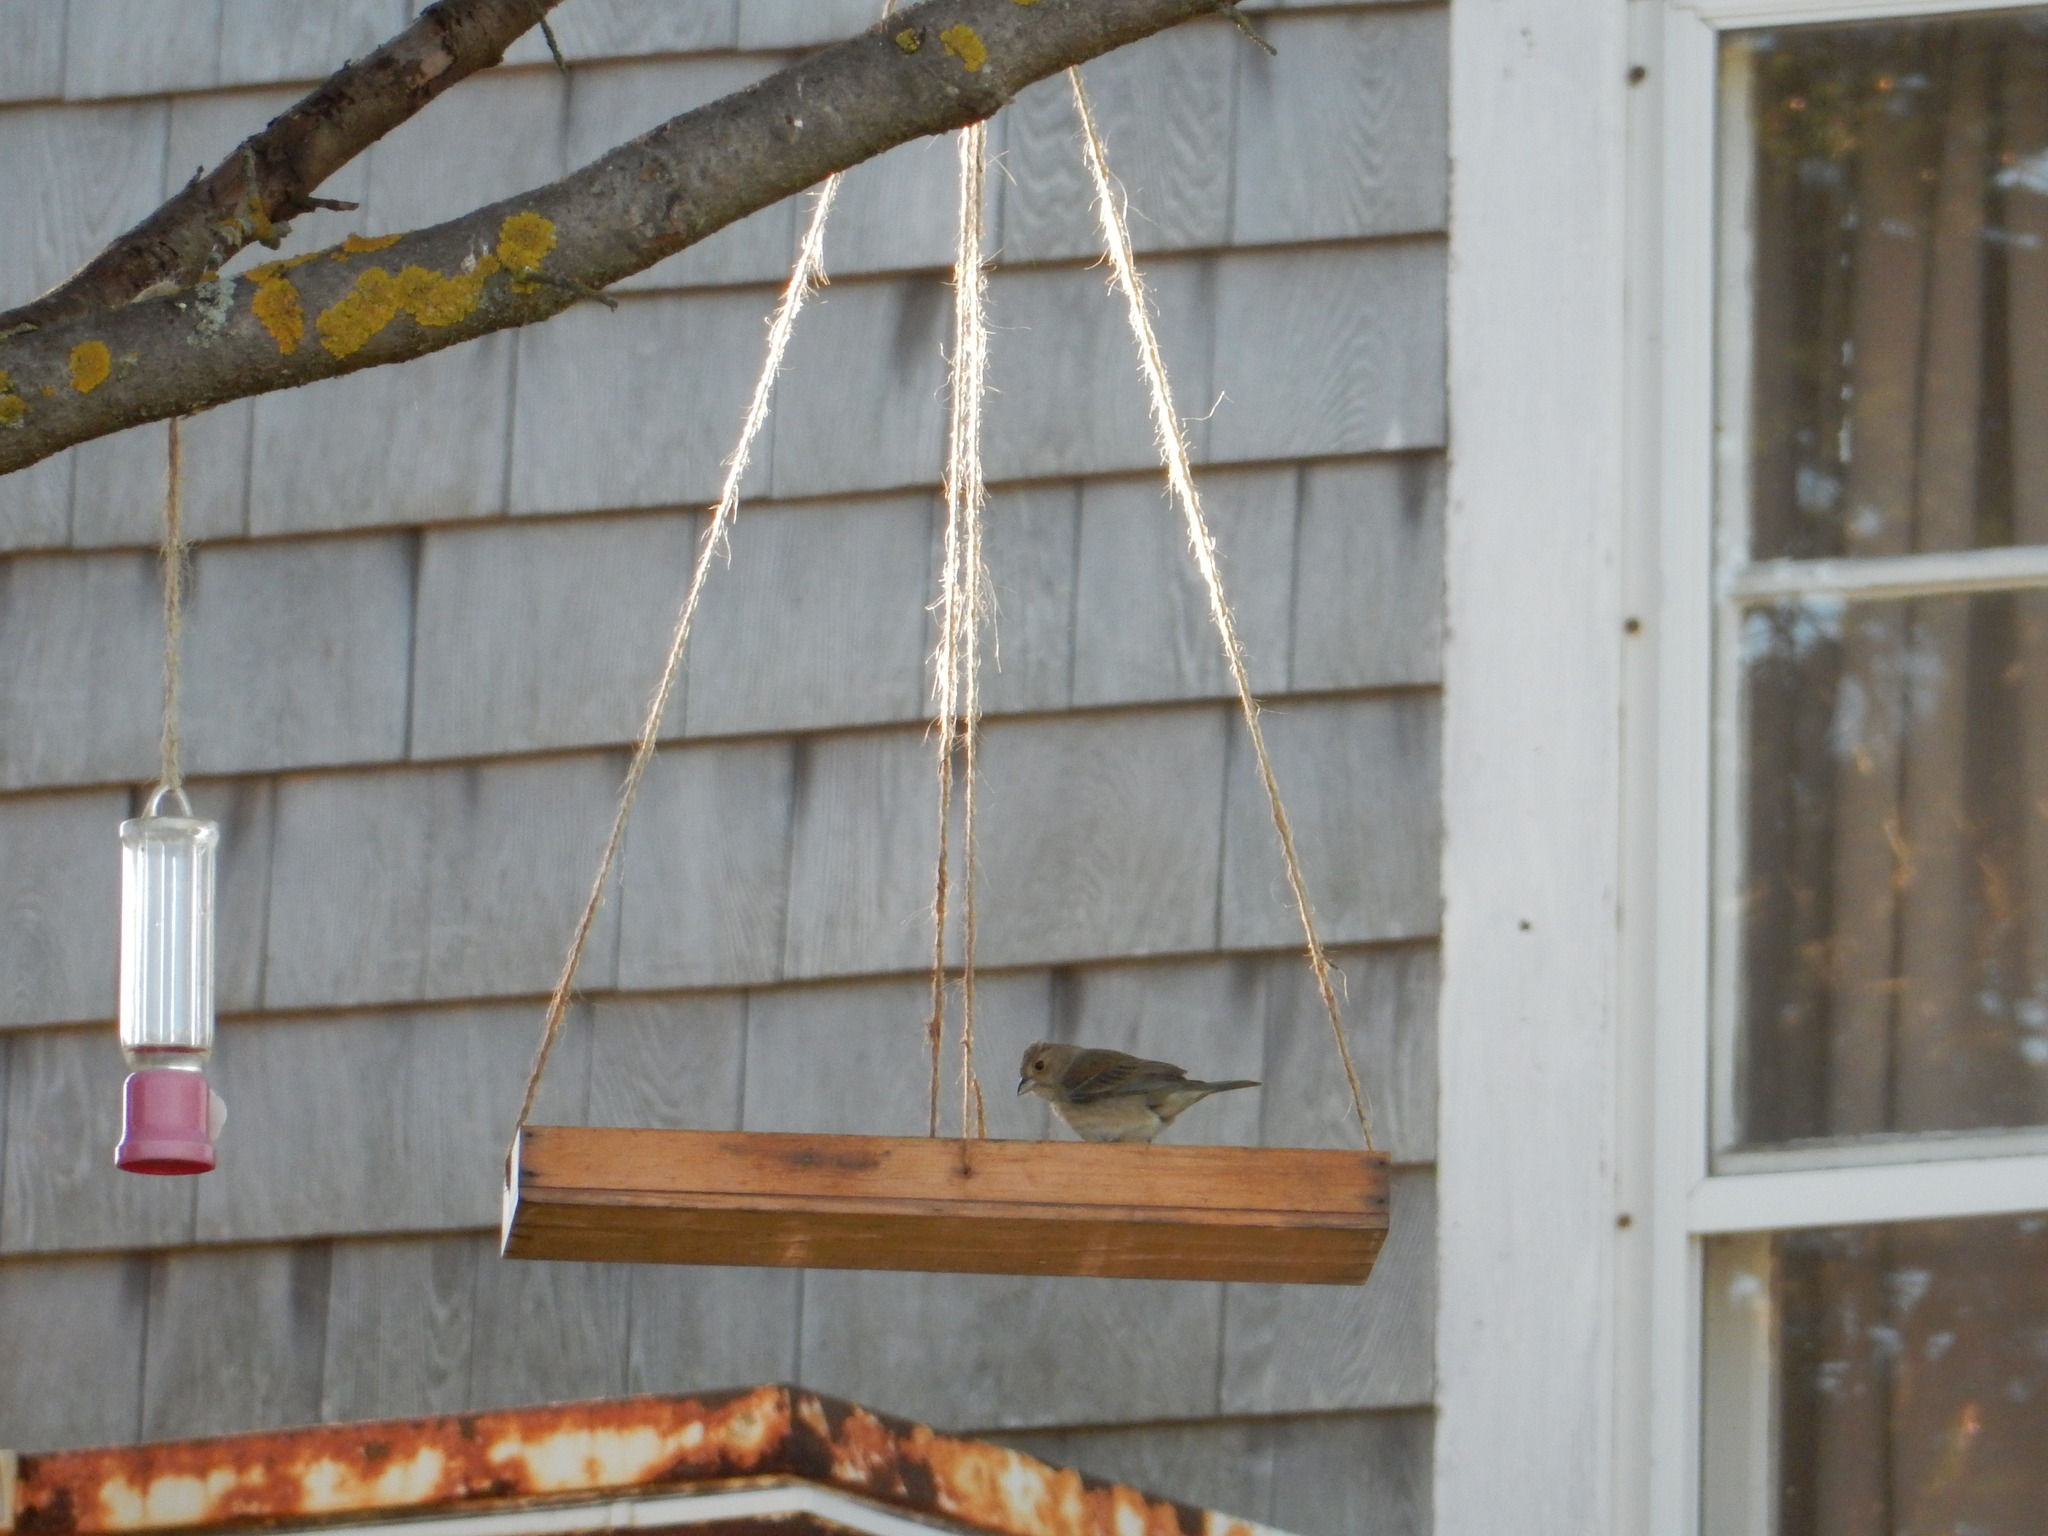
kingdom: Animalia
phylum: Chordata
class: Aves
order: Passeriformes
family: Cardinalidae
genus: Passerina
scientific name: Passerina cyanea
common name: Indigo bunting
